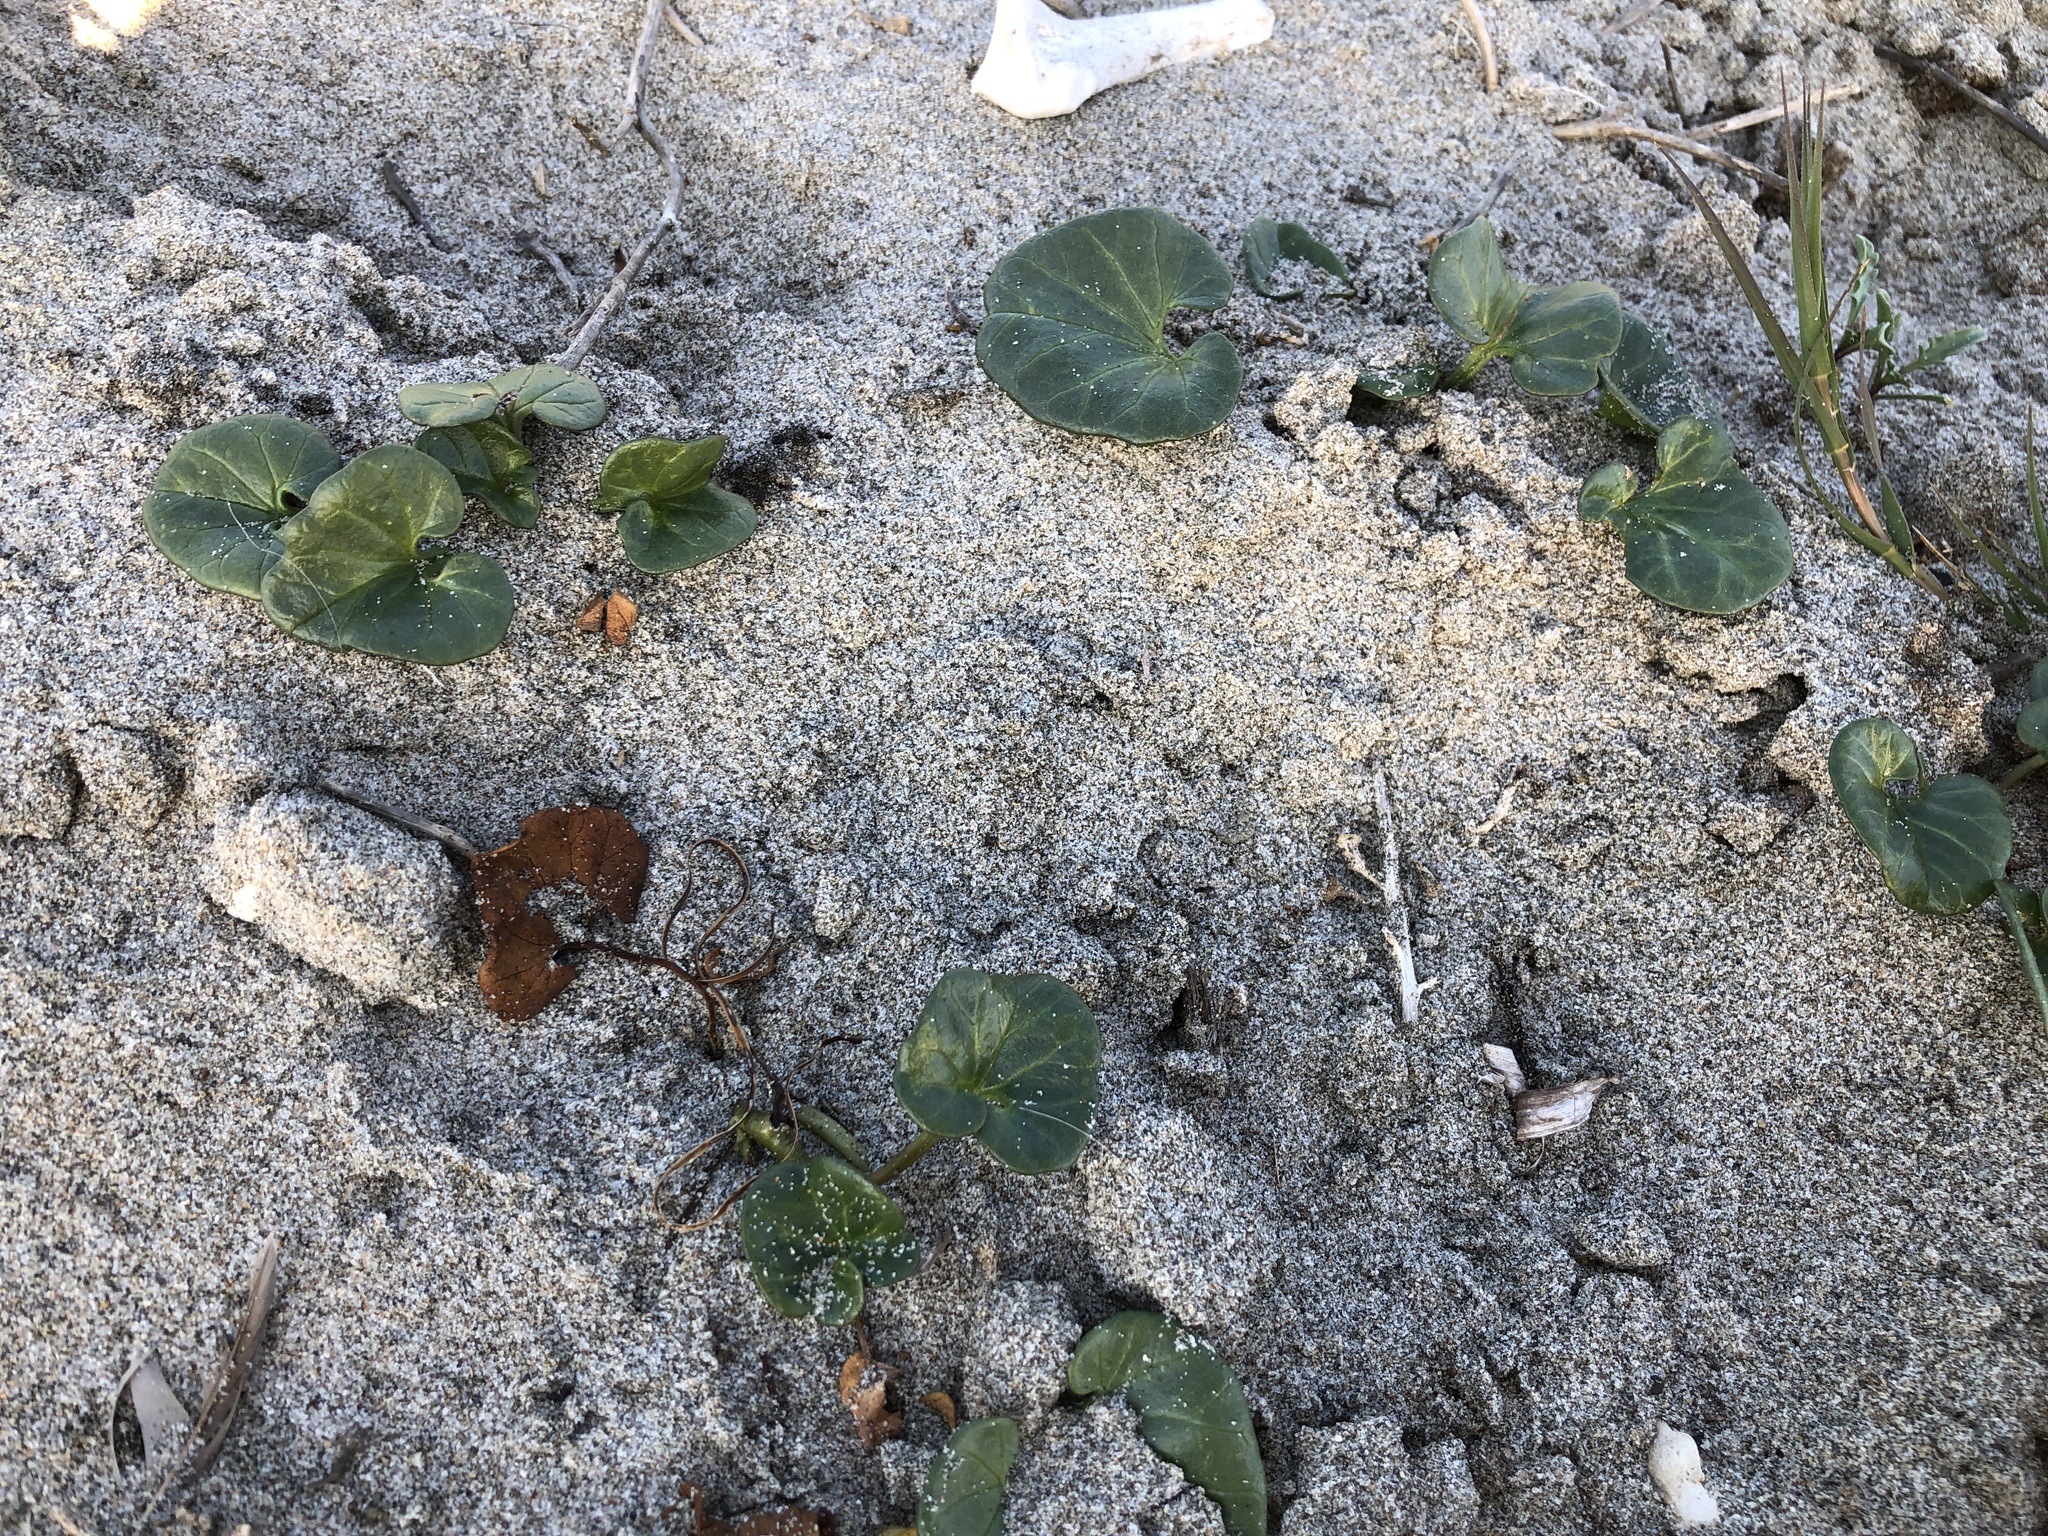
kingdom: Plantae
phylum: Tracheophyta
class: Magnoliopsida
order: Solanales
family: Convolvulaceae
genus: Calystegia
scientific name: Calystegia soldanella
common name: Sea bindweed
